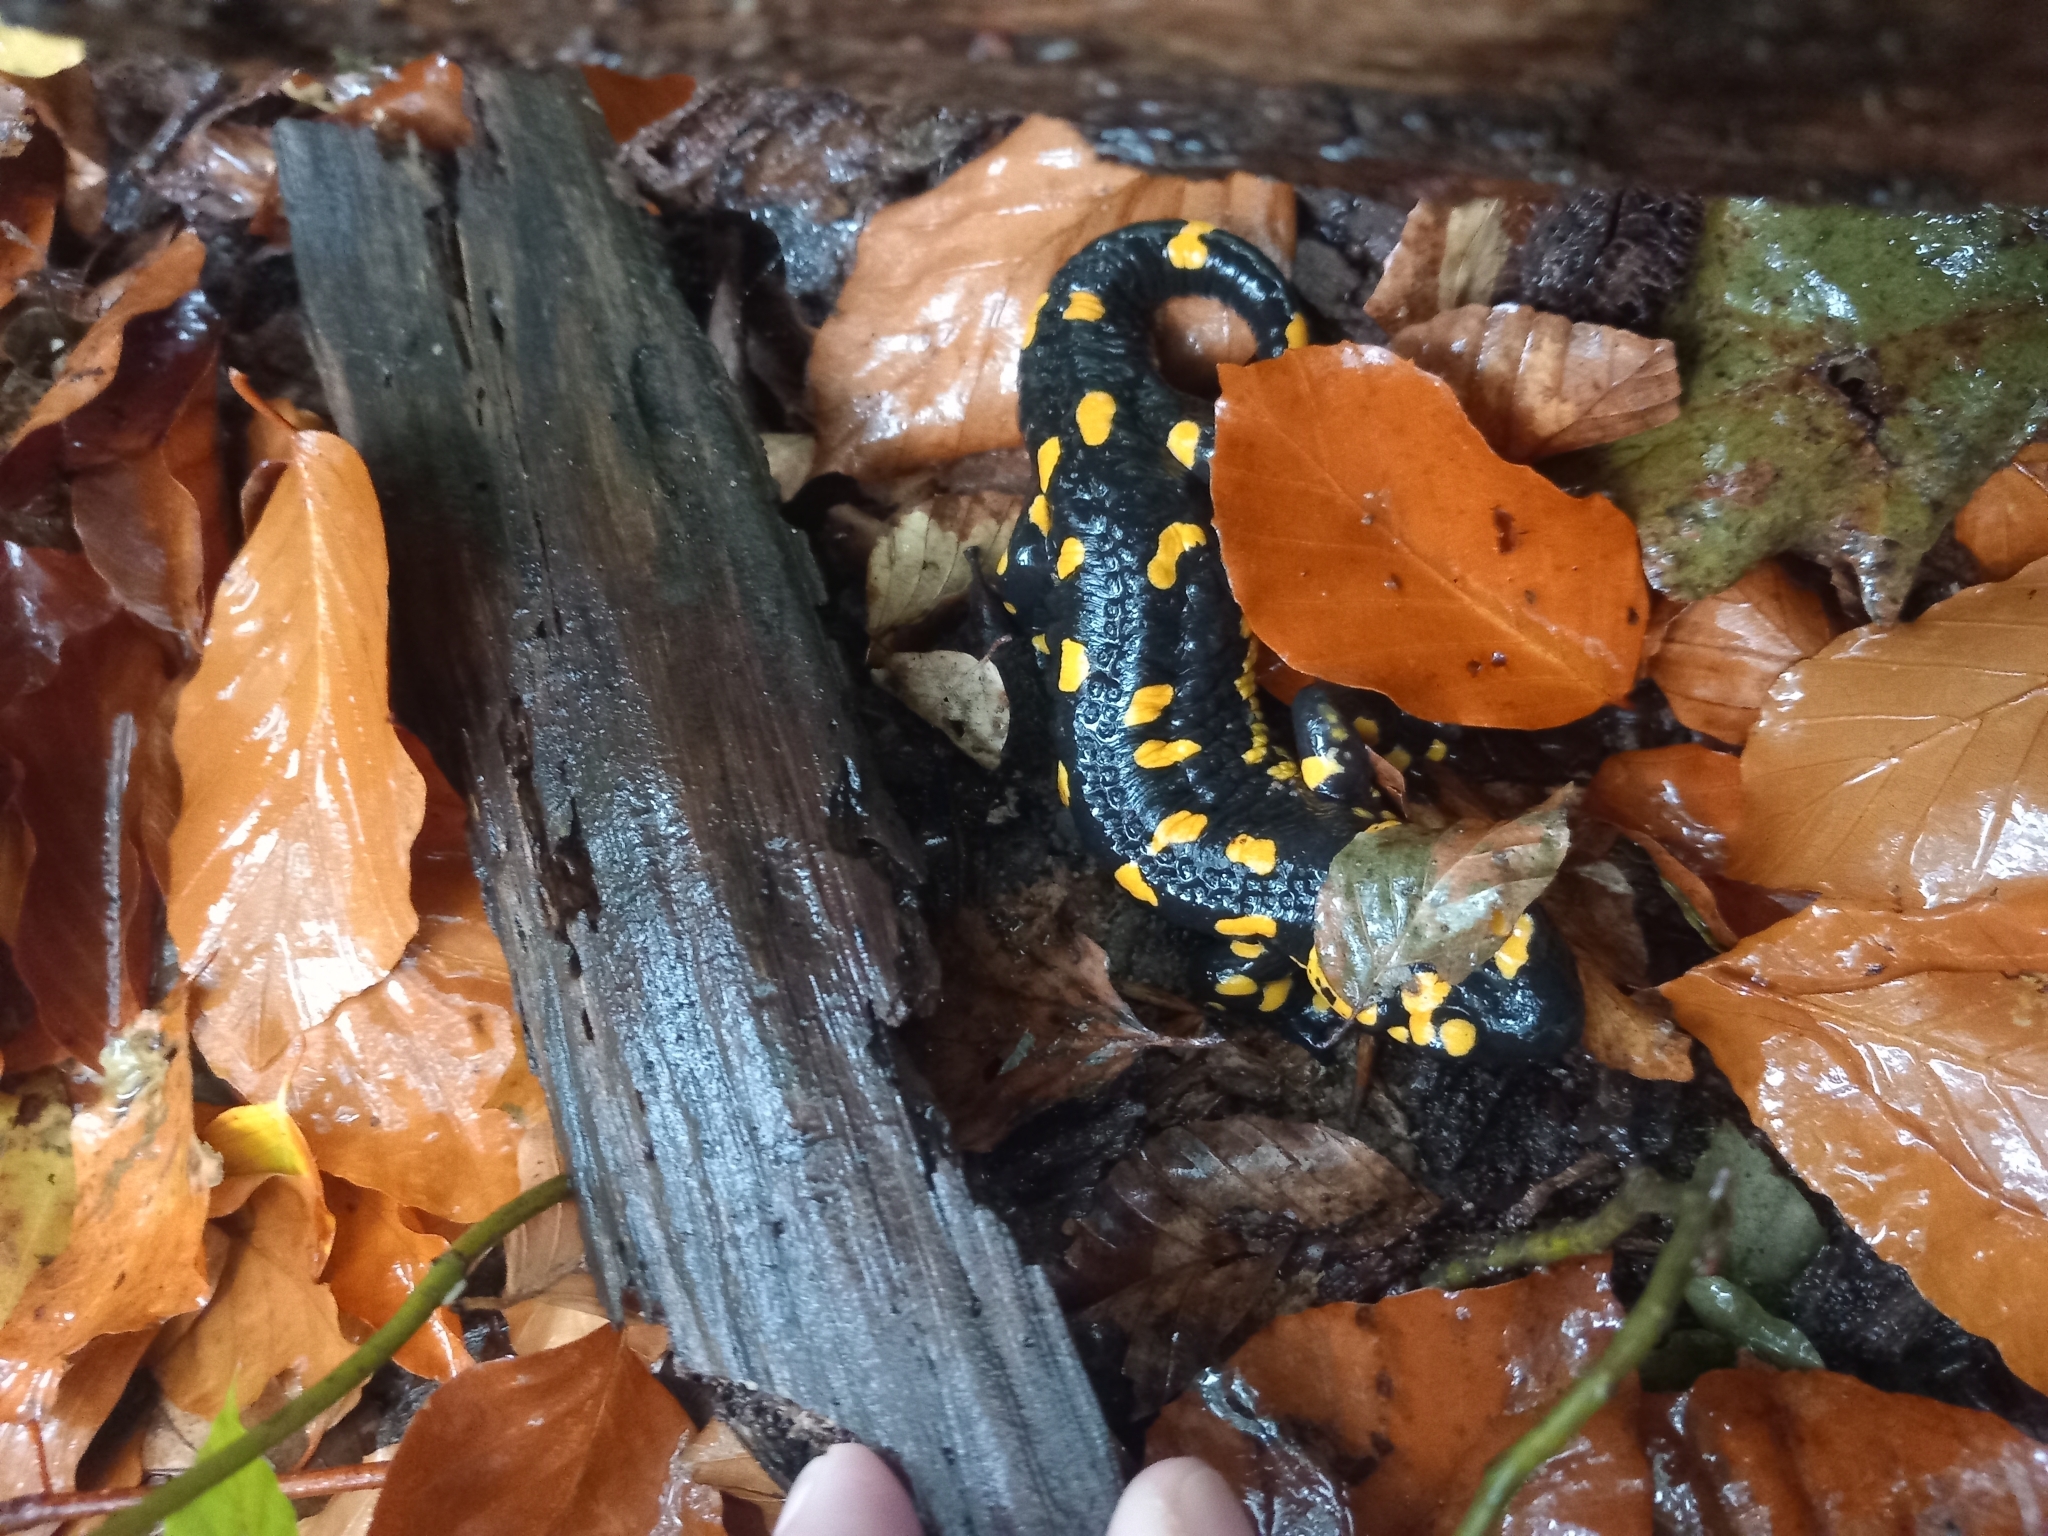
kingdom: Animalia
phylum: Chordata
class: Amphibia
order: Caudata
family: Salamandridae
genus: Salamandra
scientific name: Salamandra salamandra
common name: Fire salamander
